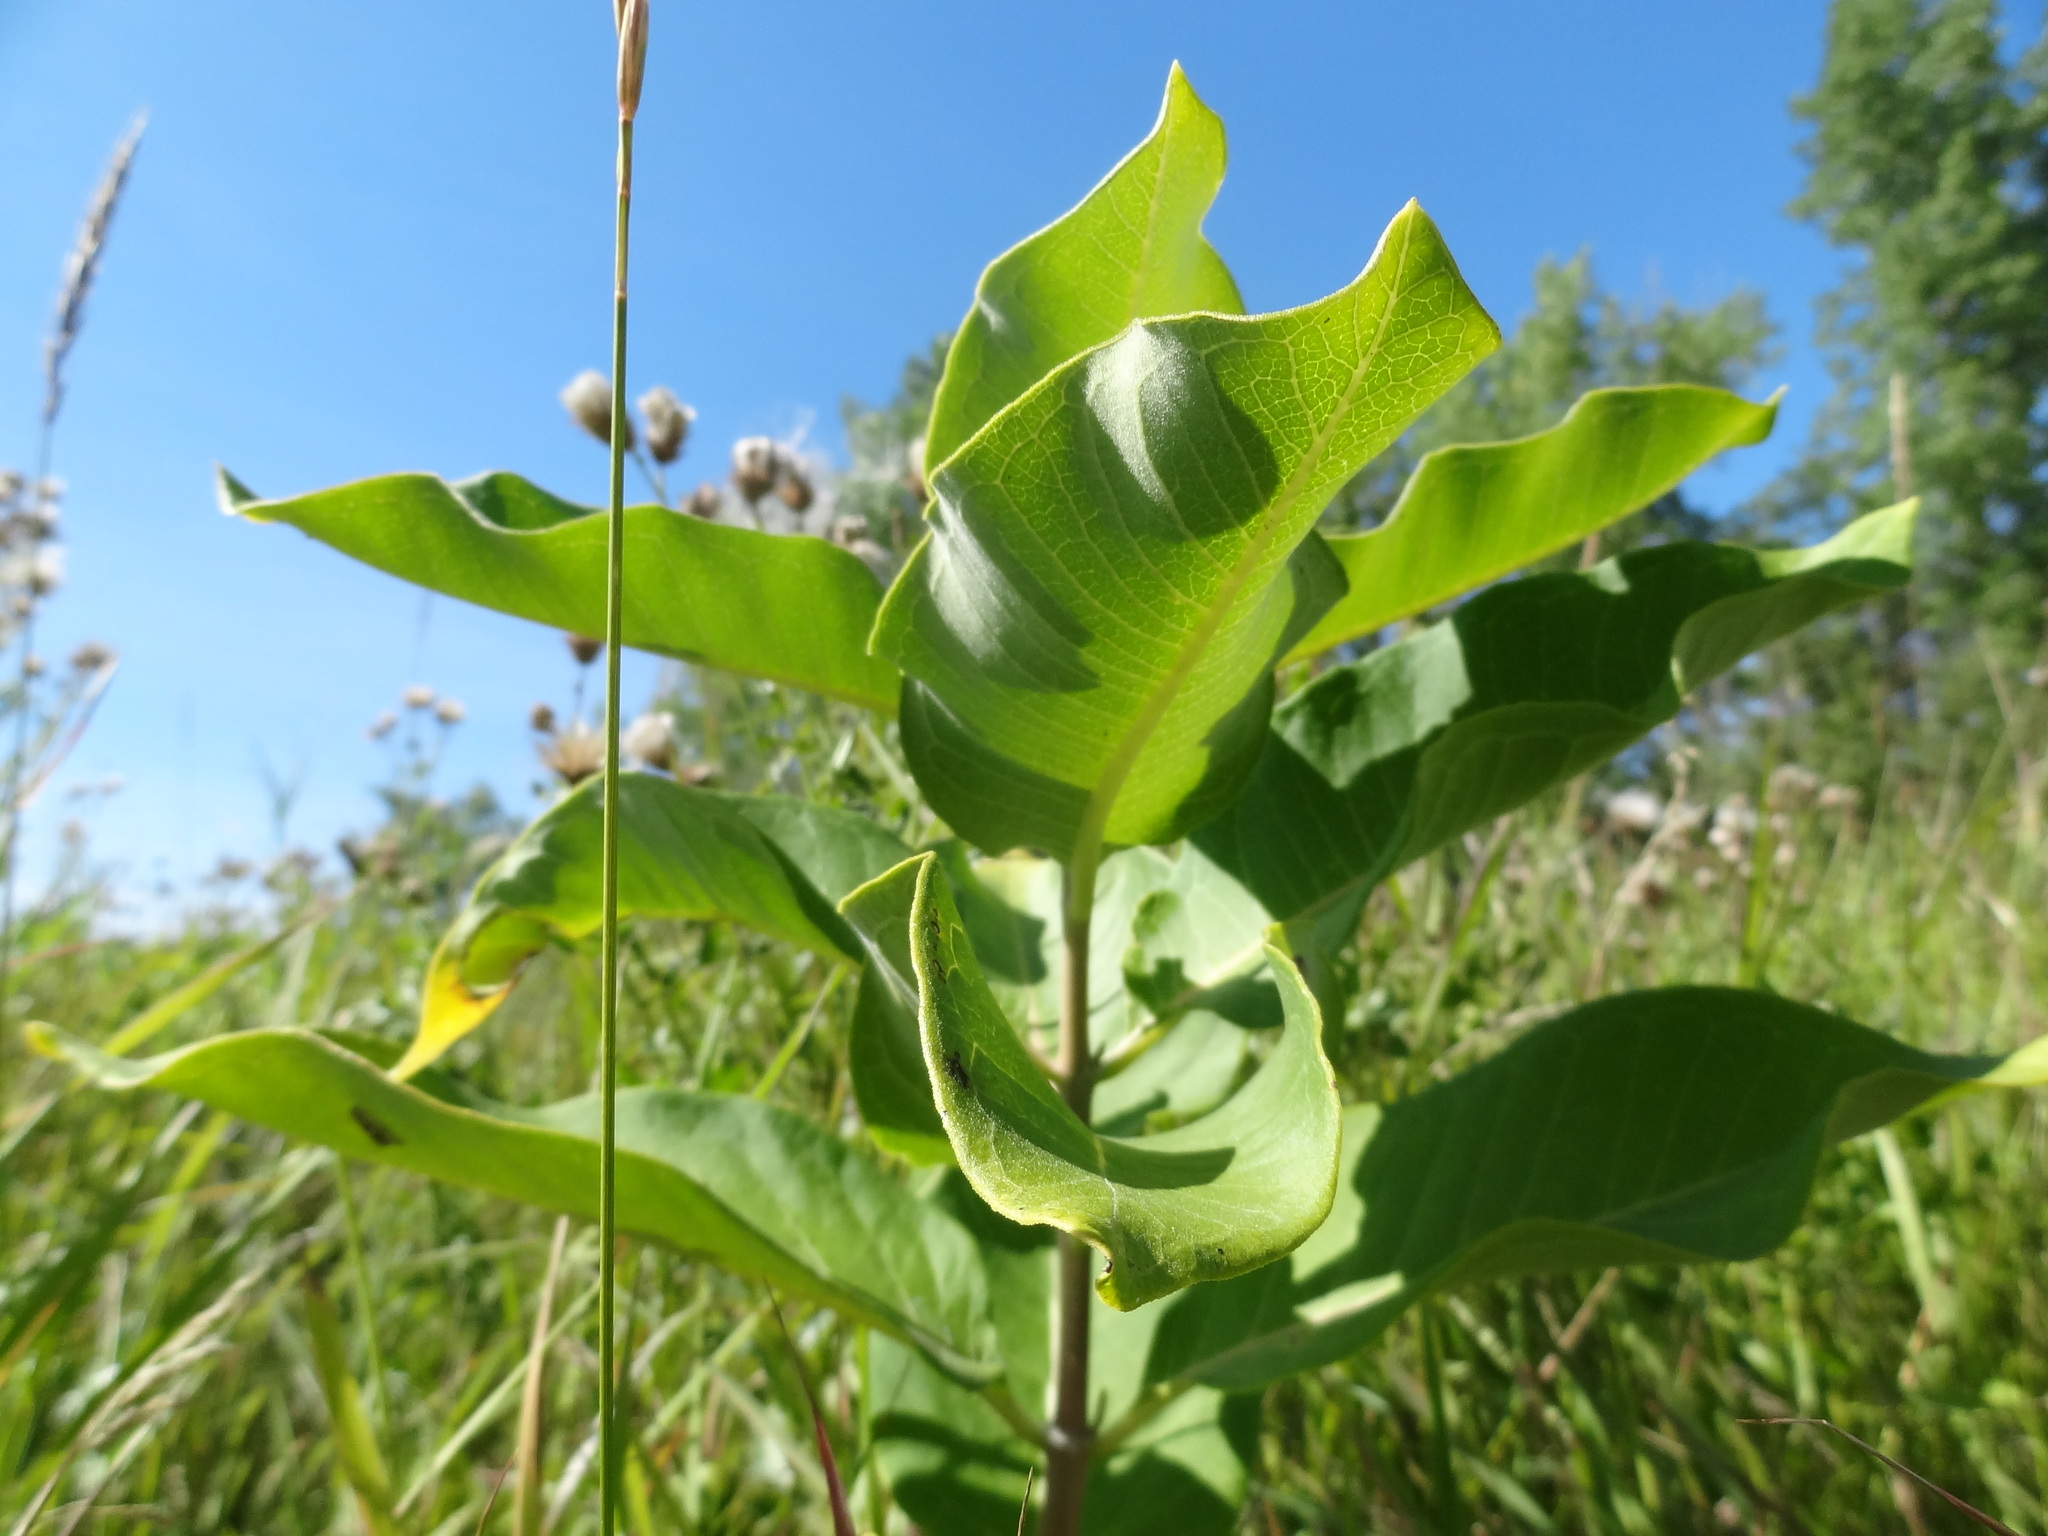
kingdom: Plantae
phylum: Tracheophyta
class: Magnoliopsida
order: Gentianales
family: Apocynaceae
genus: Asclepias
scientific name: Asclepias syriaca
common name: Common milkweed
